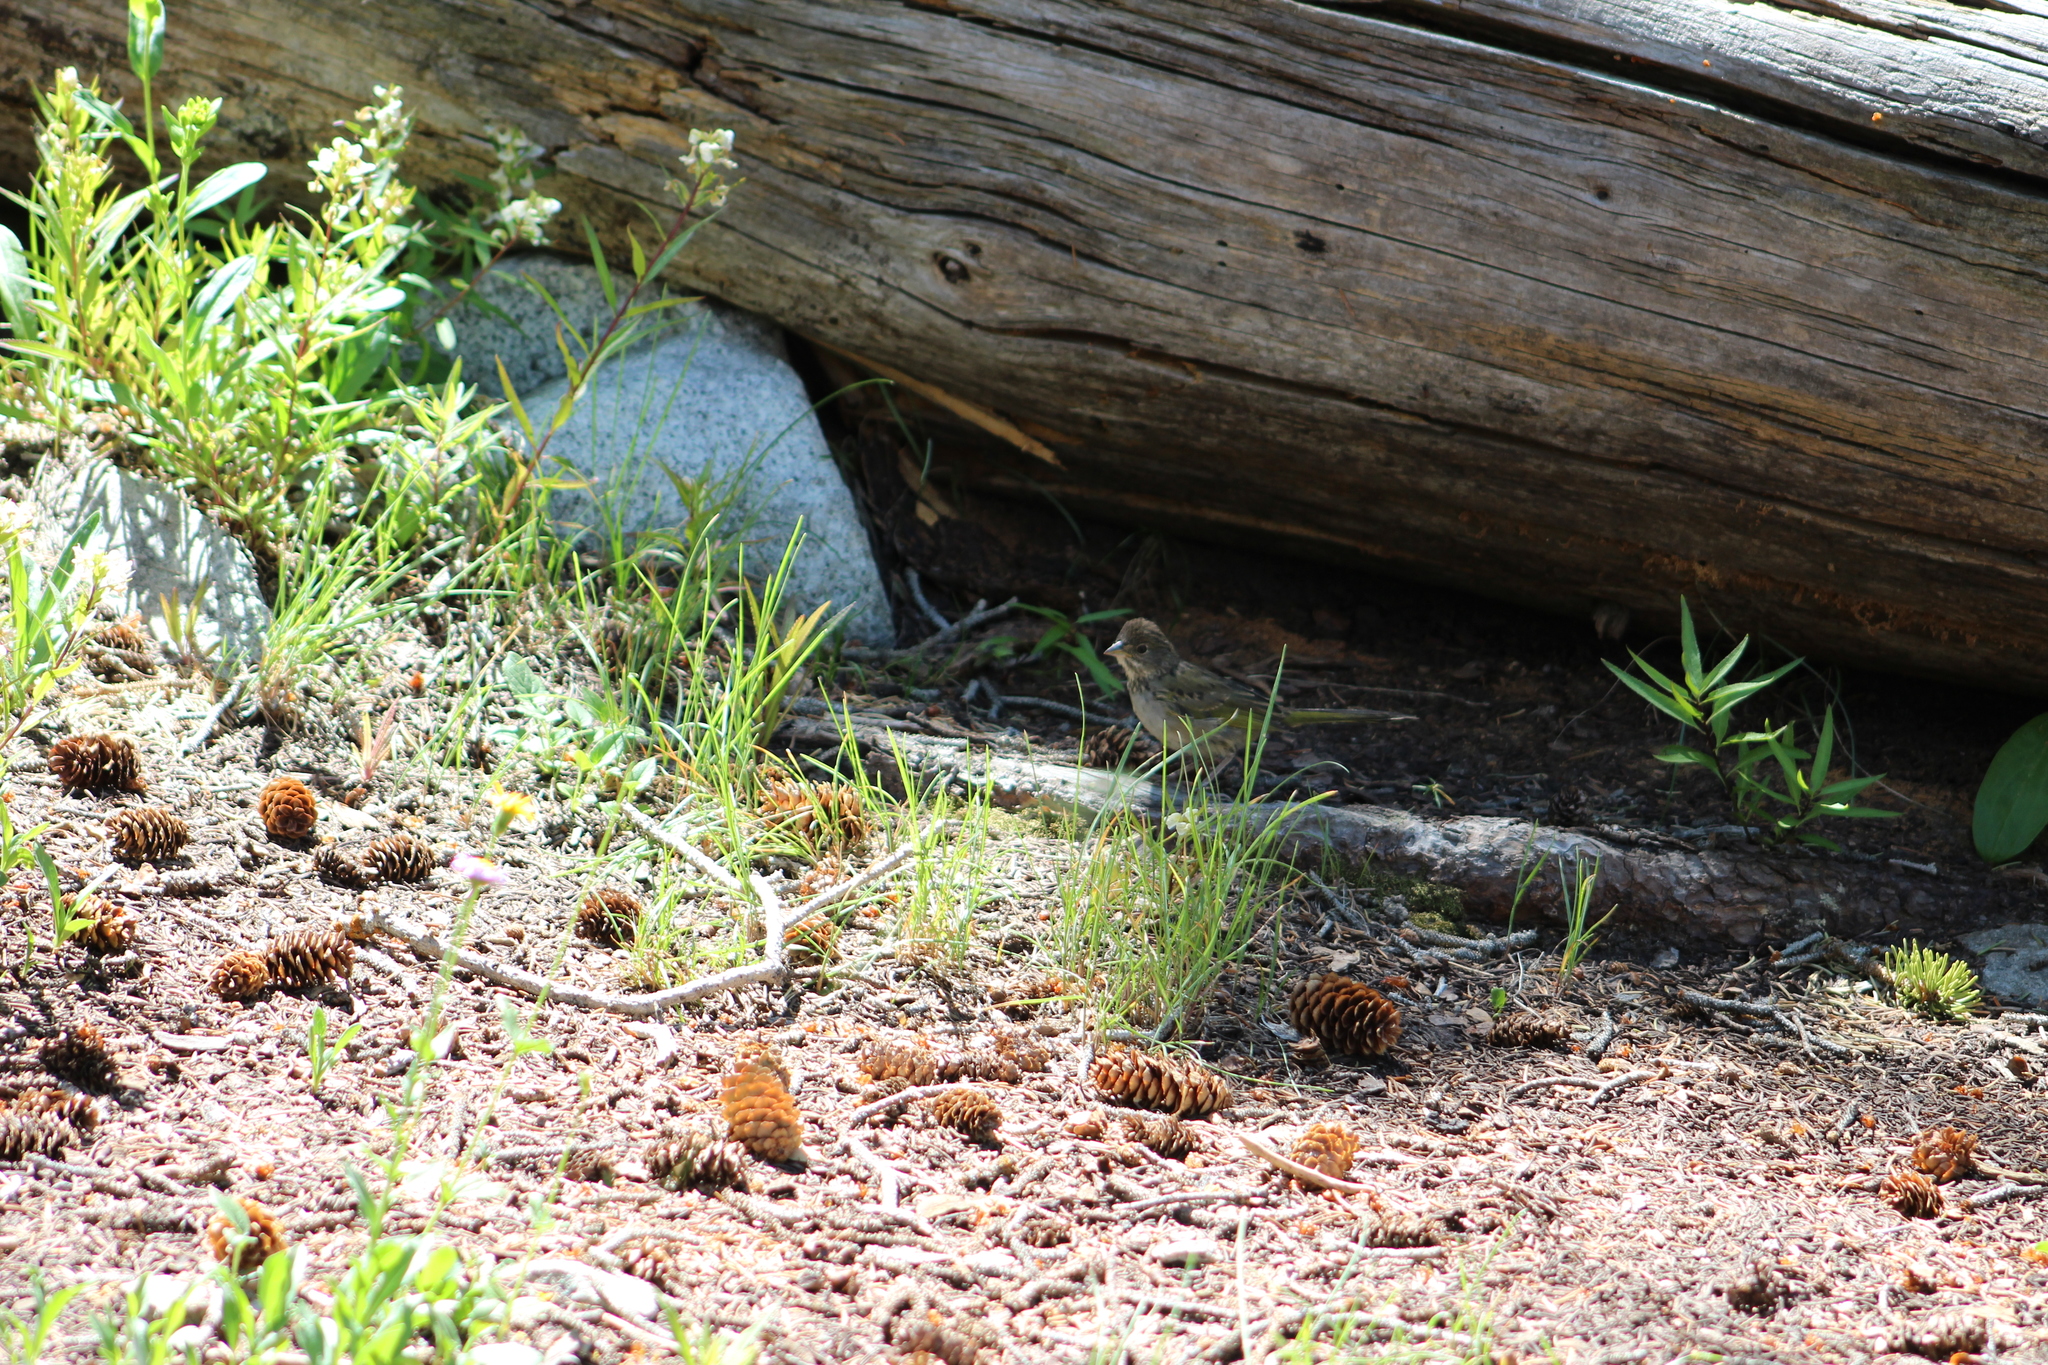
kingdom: Animalia
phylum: Chordata
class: Aves
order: Passeriformes
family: Passerellidae
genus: Pipilo
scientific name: Pipilo chlorurus
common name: Green-tailed towhee
